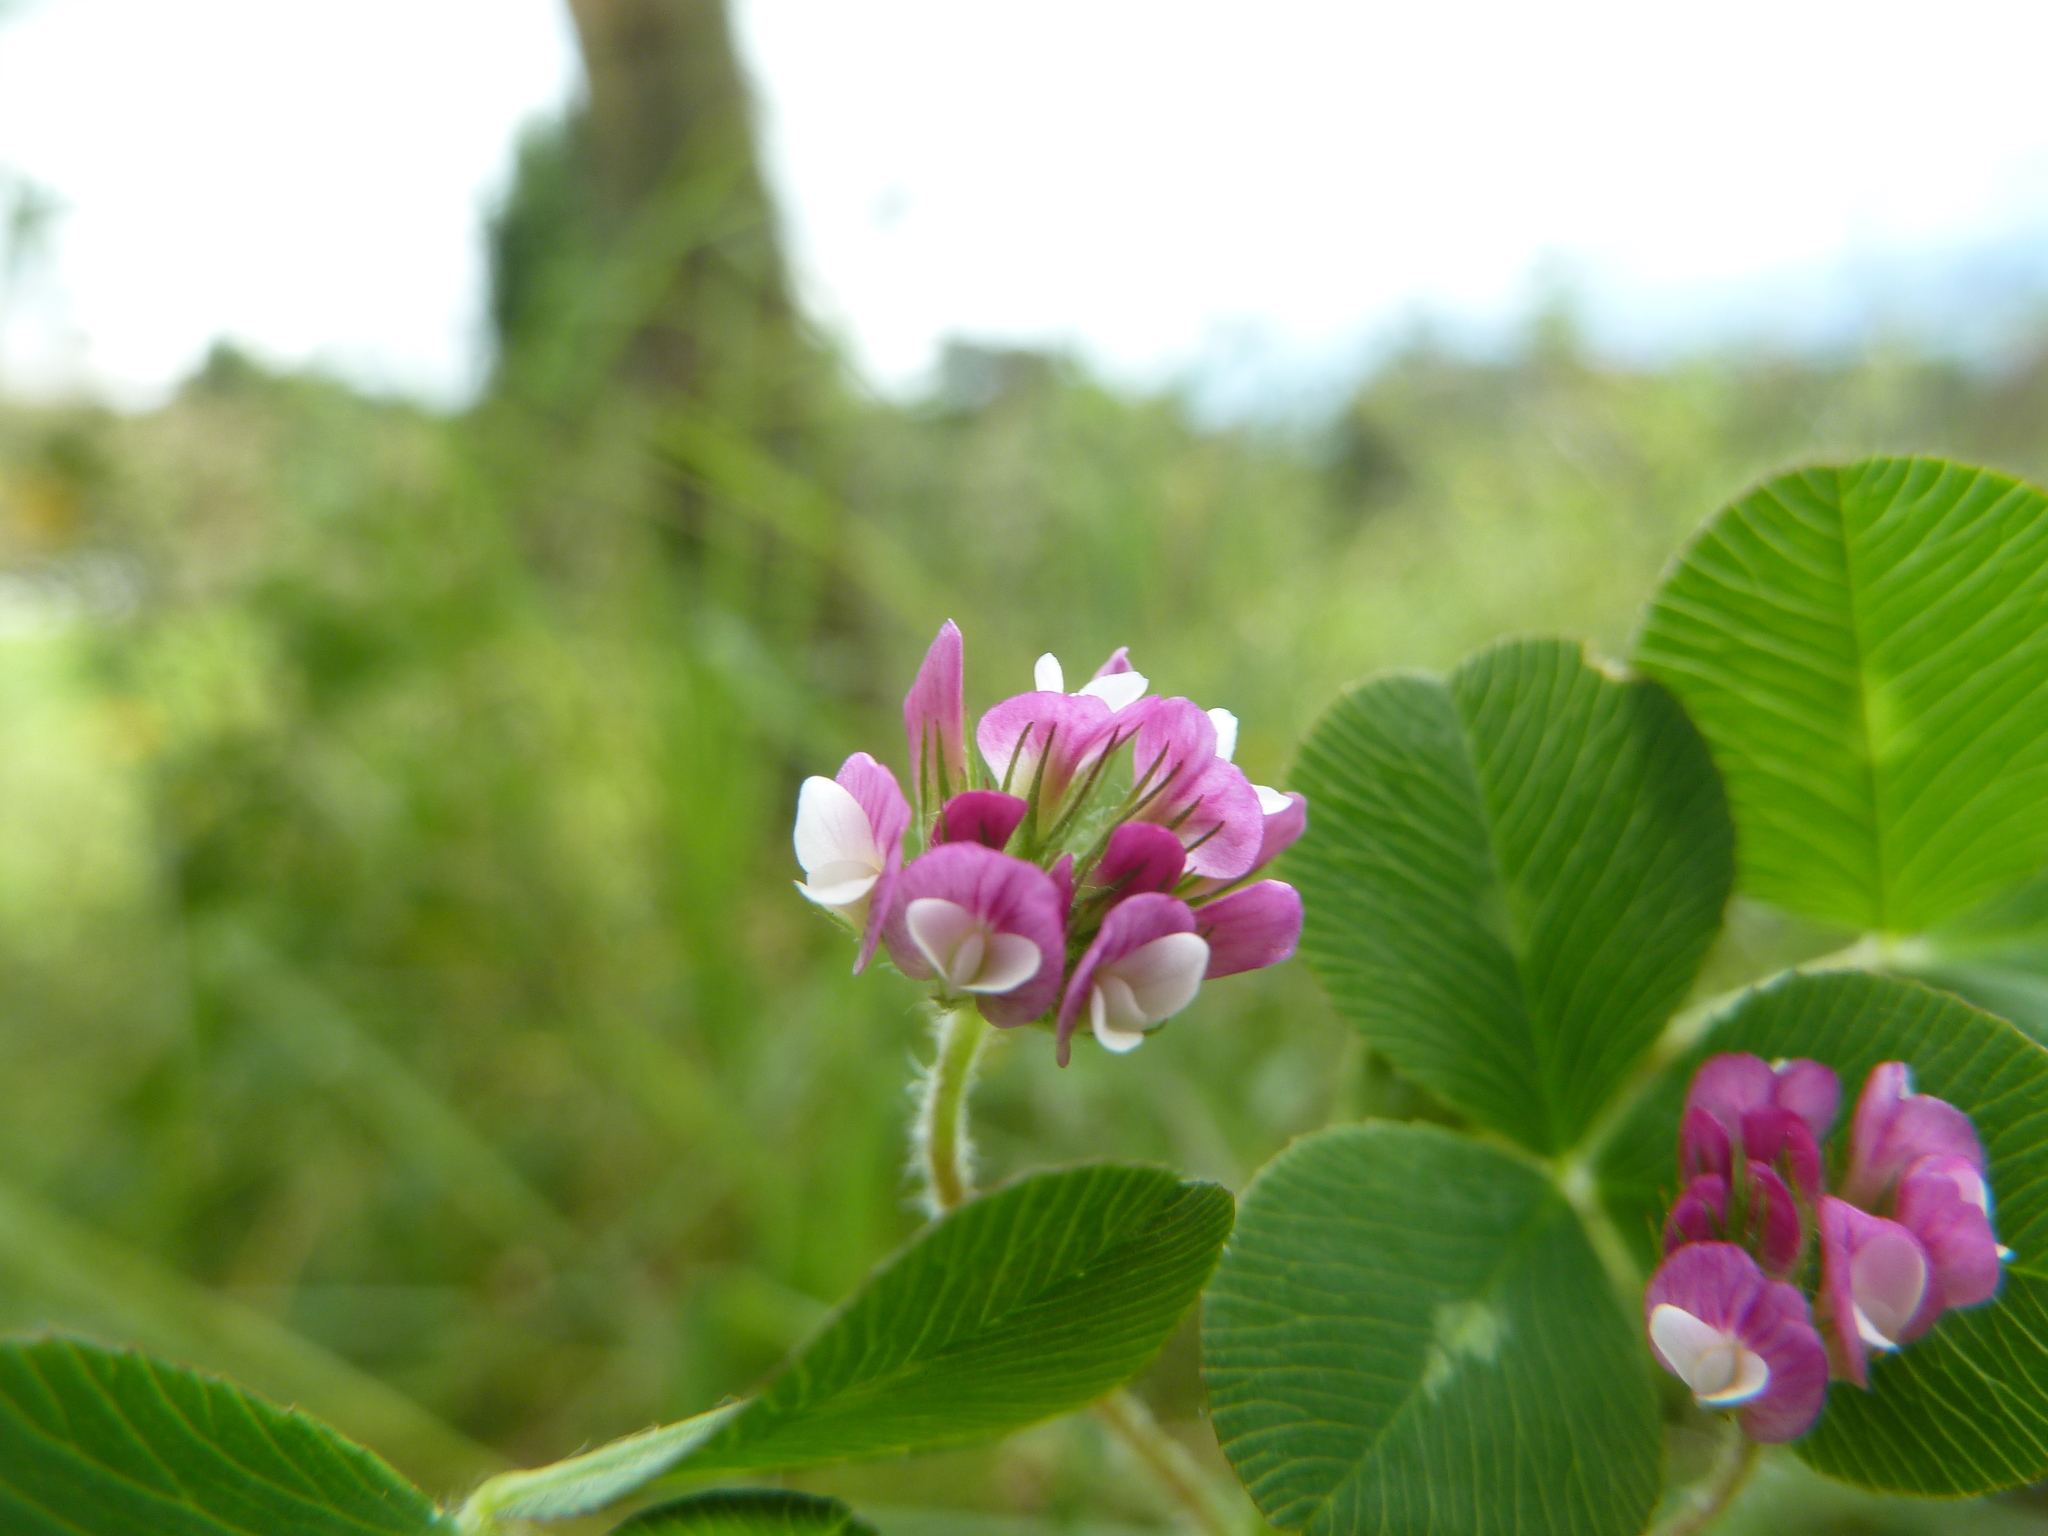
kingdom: Plantae
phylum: Tracheophyta
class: Magnoliopsida
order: Fabales
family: Fabaceae
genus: Trifolium
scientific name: Trifolium amabile
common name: Aztec clover
